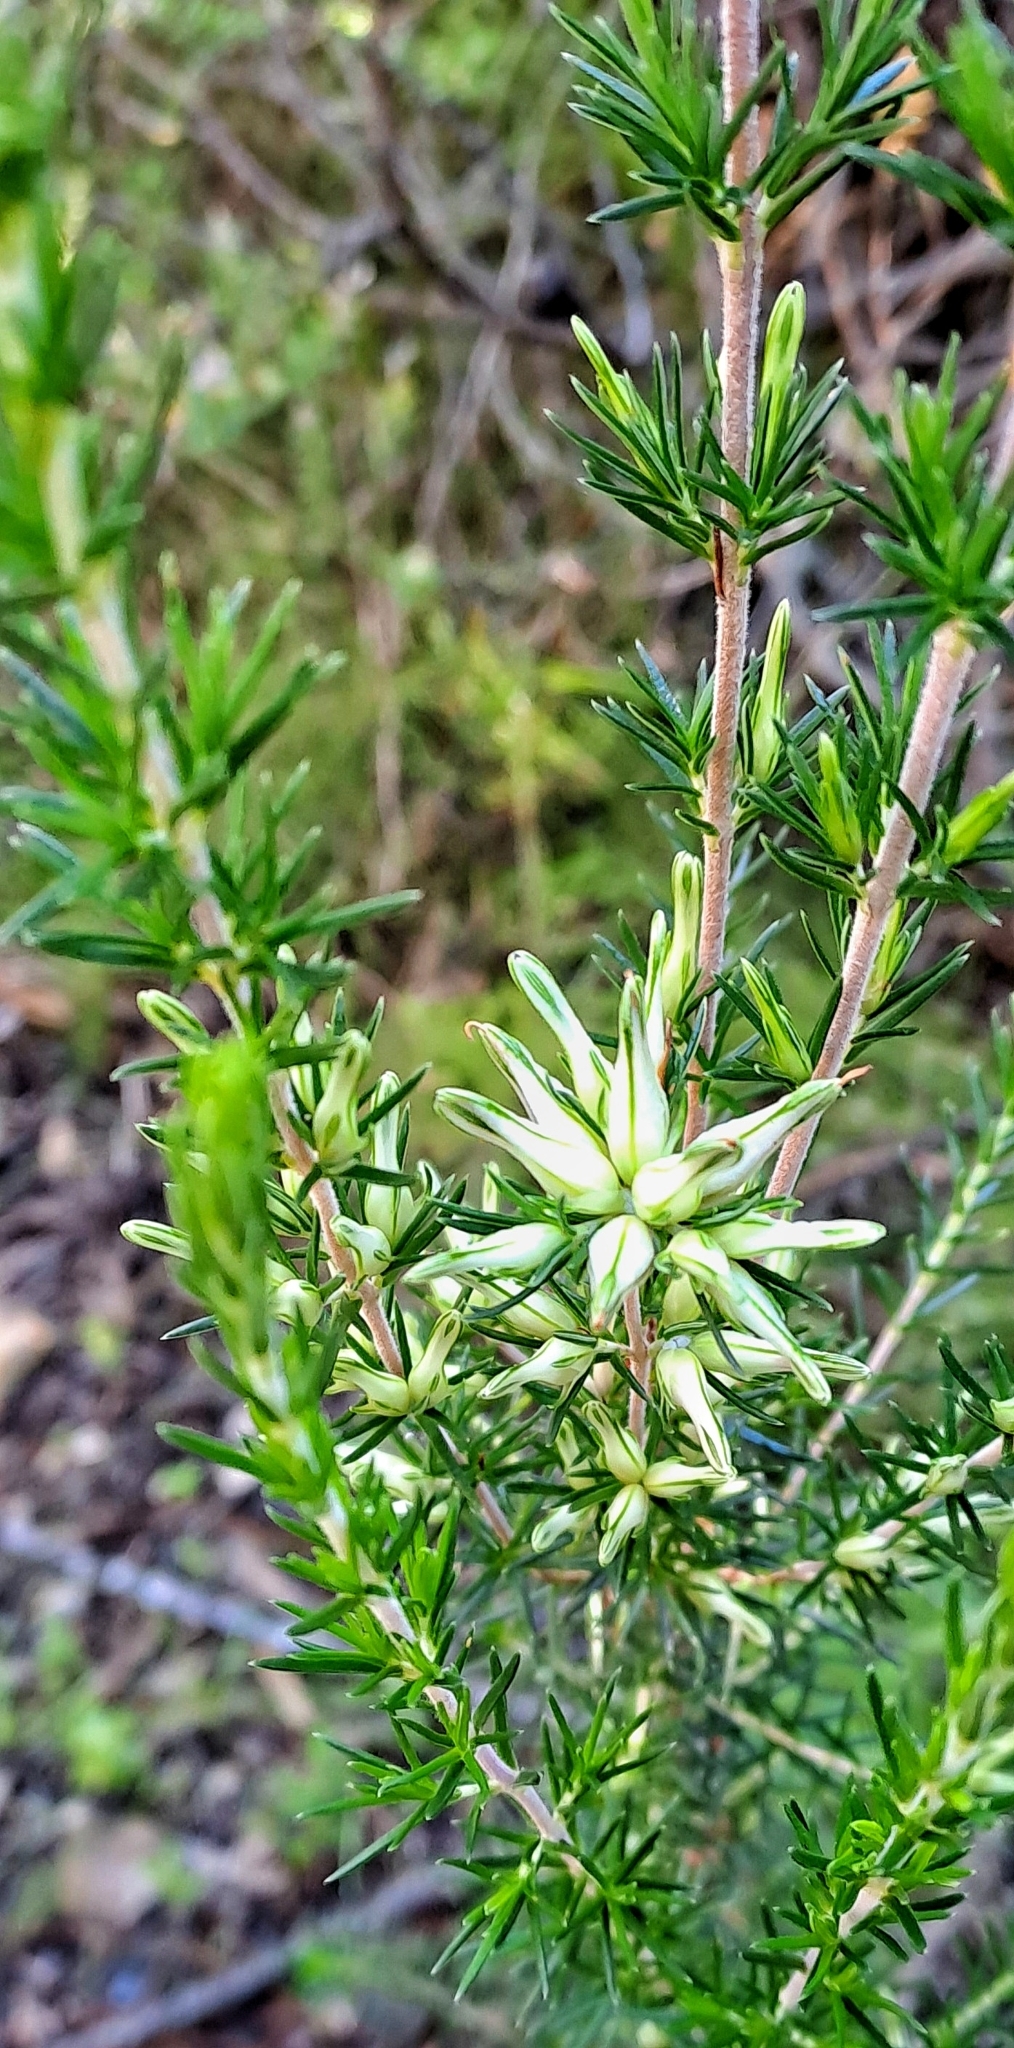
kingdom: Plantae
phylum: Tracheophyta
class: Magnoliopsida
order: Ericales
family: Ericaceae
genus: Erica
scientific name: Erica nabea
